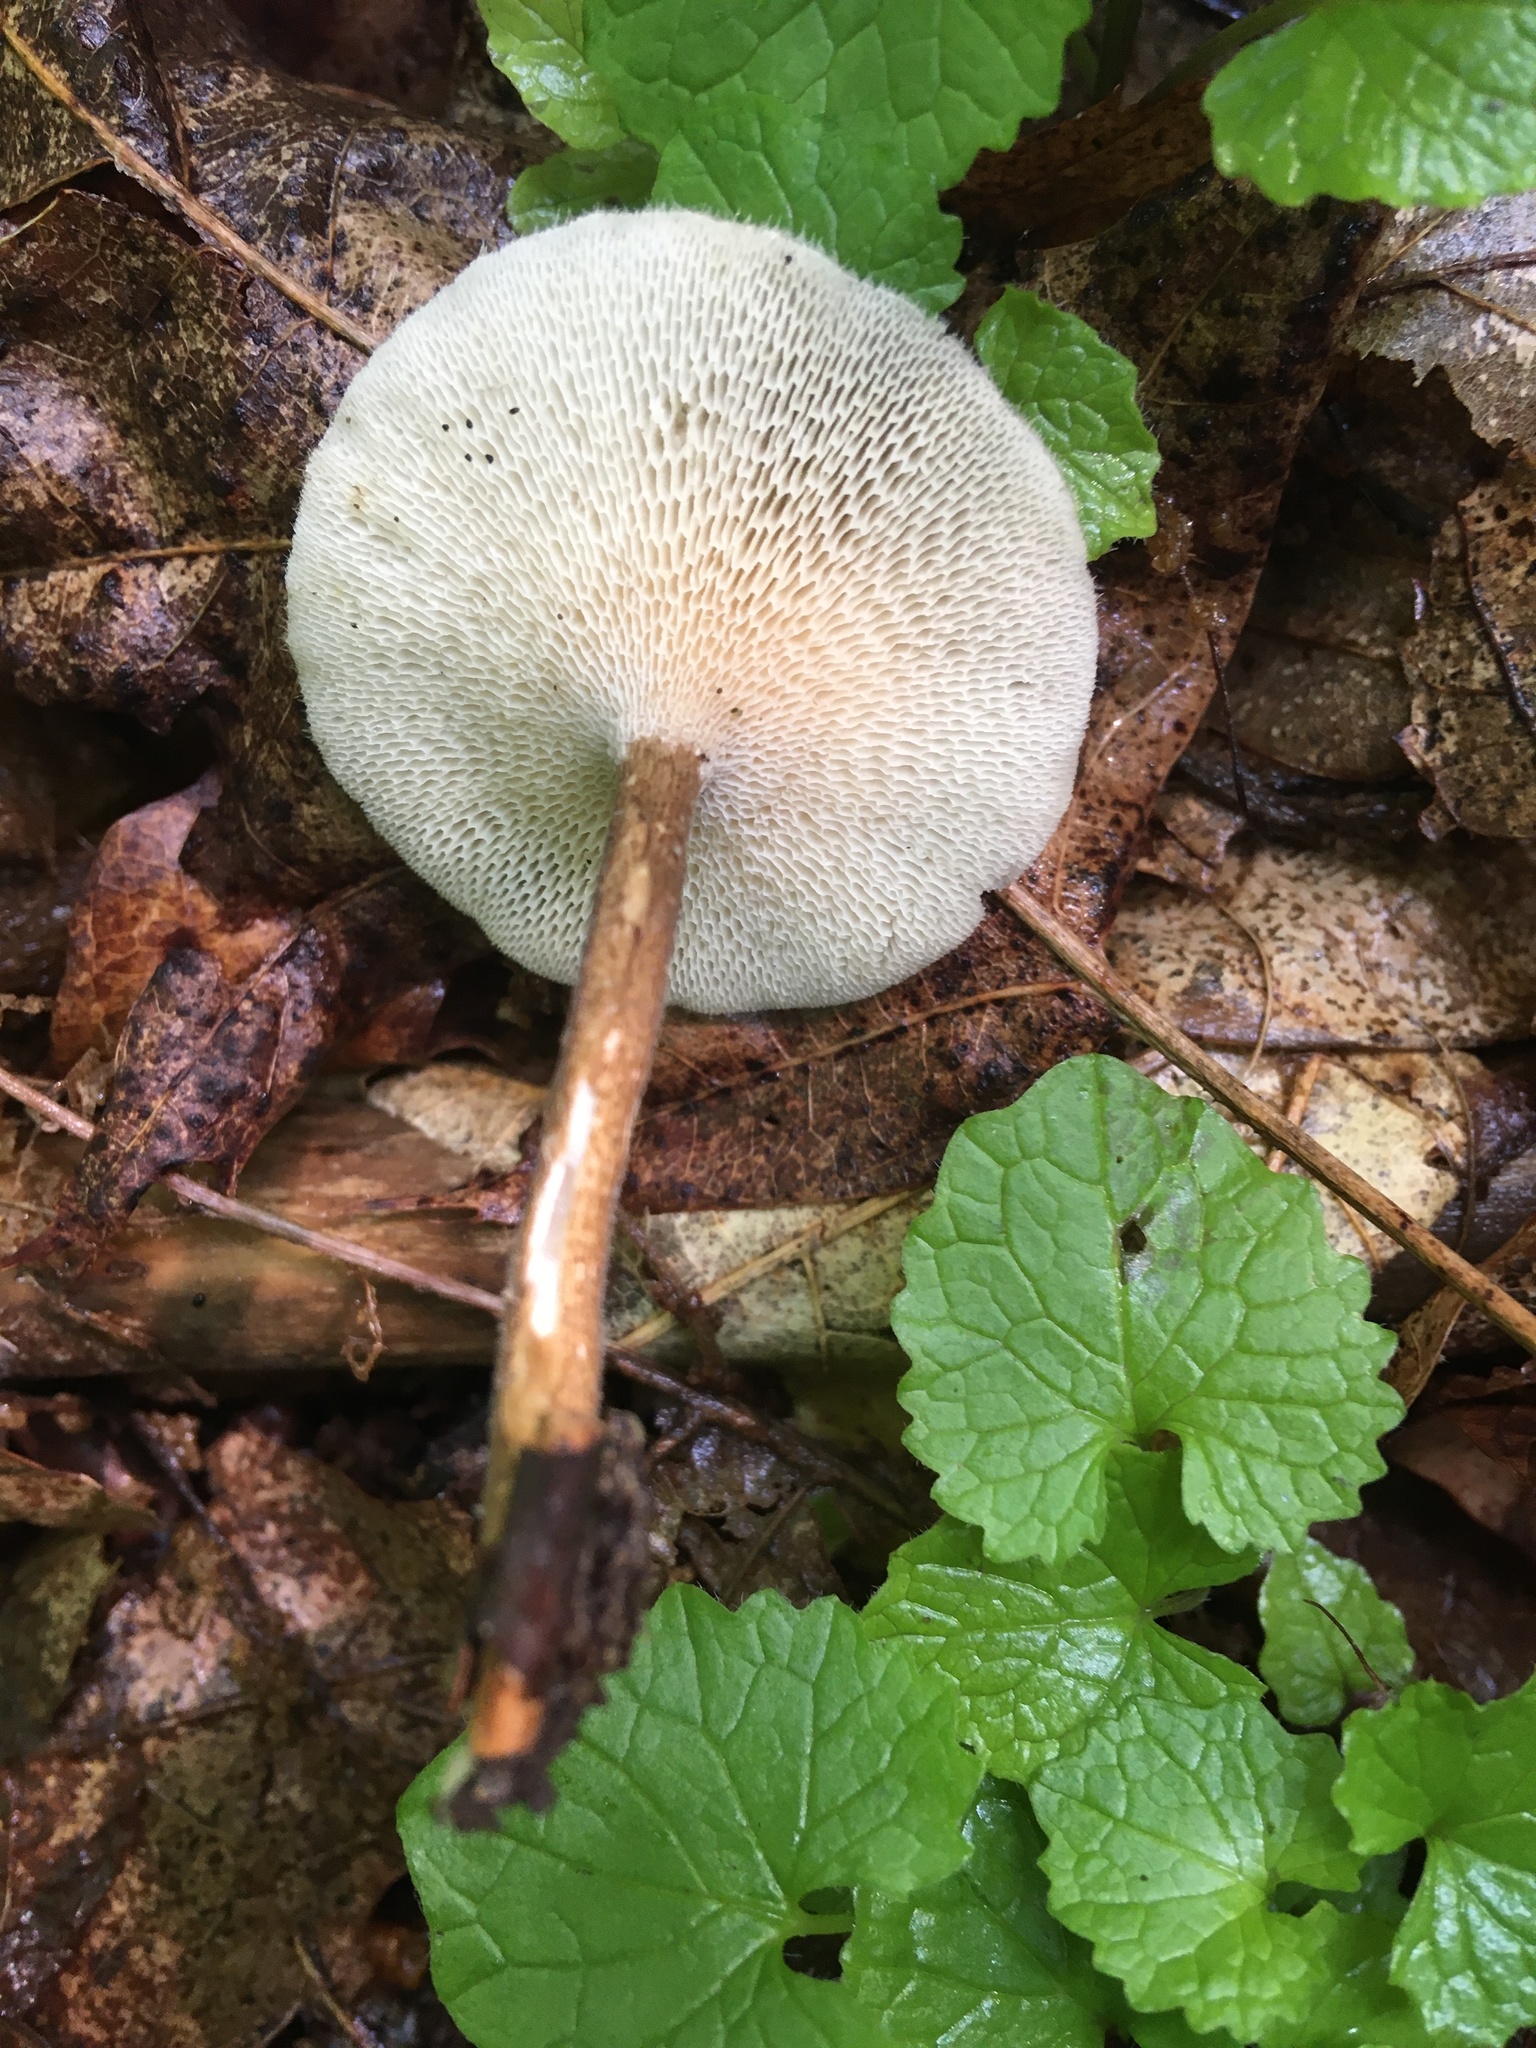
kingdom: Fungi
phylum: Basidiomycota
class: Agaricomycetes
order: Polyporales
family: Polyporaceae
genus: Lentinus
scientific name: Lentinus arcularius
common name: Spring polypore
